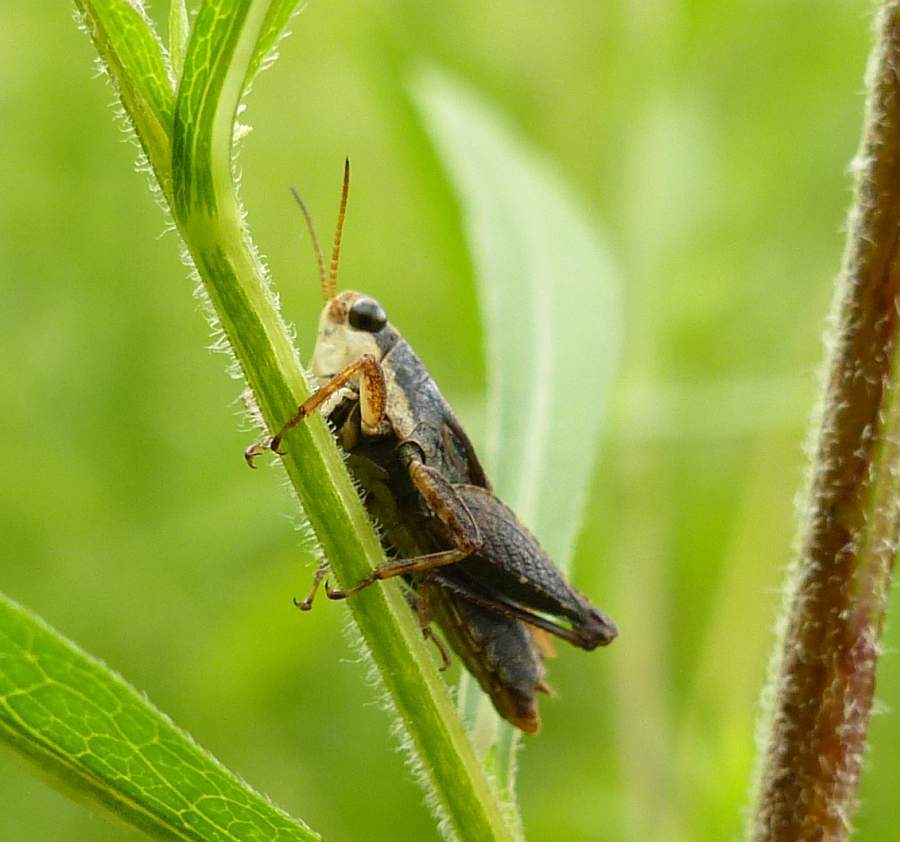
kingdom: Animalia
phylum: Arthropoda
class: Insecta
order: Orthoptera
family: Tetrigidae
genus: Tettigidea
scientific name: Tettigidea laterale
